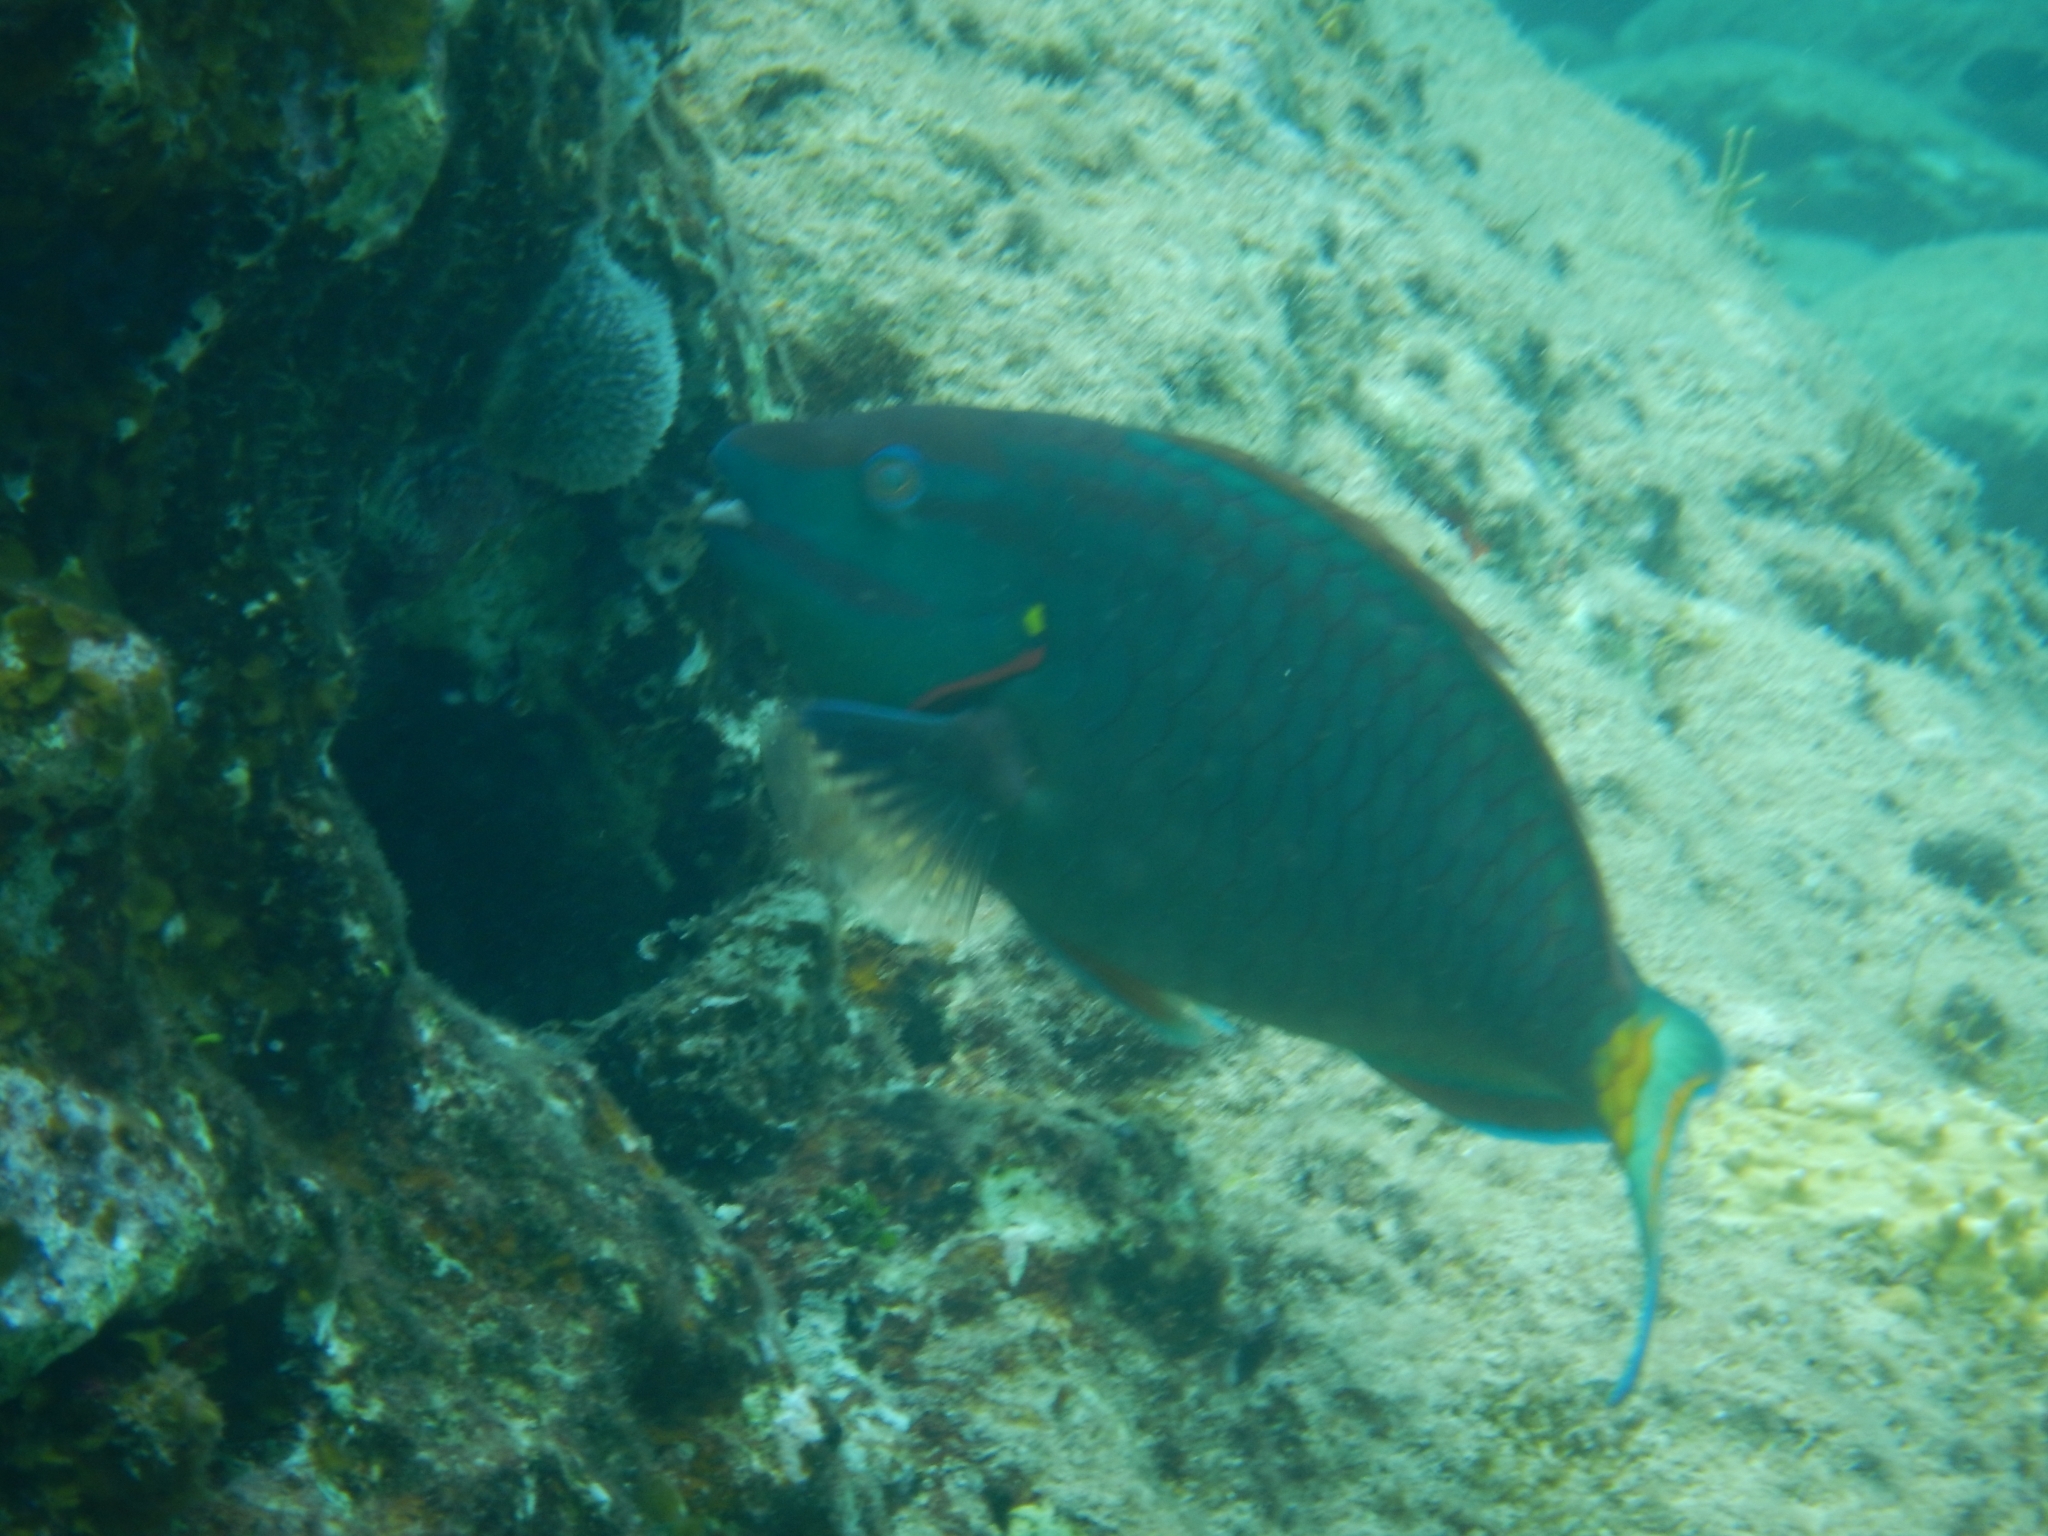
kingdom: Animalia
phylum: Chordata
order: Perciformes
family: Scaridae
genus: Sparisoma
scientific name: Sparisoma viride
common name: Stoplight parrotfish
